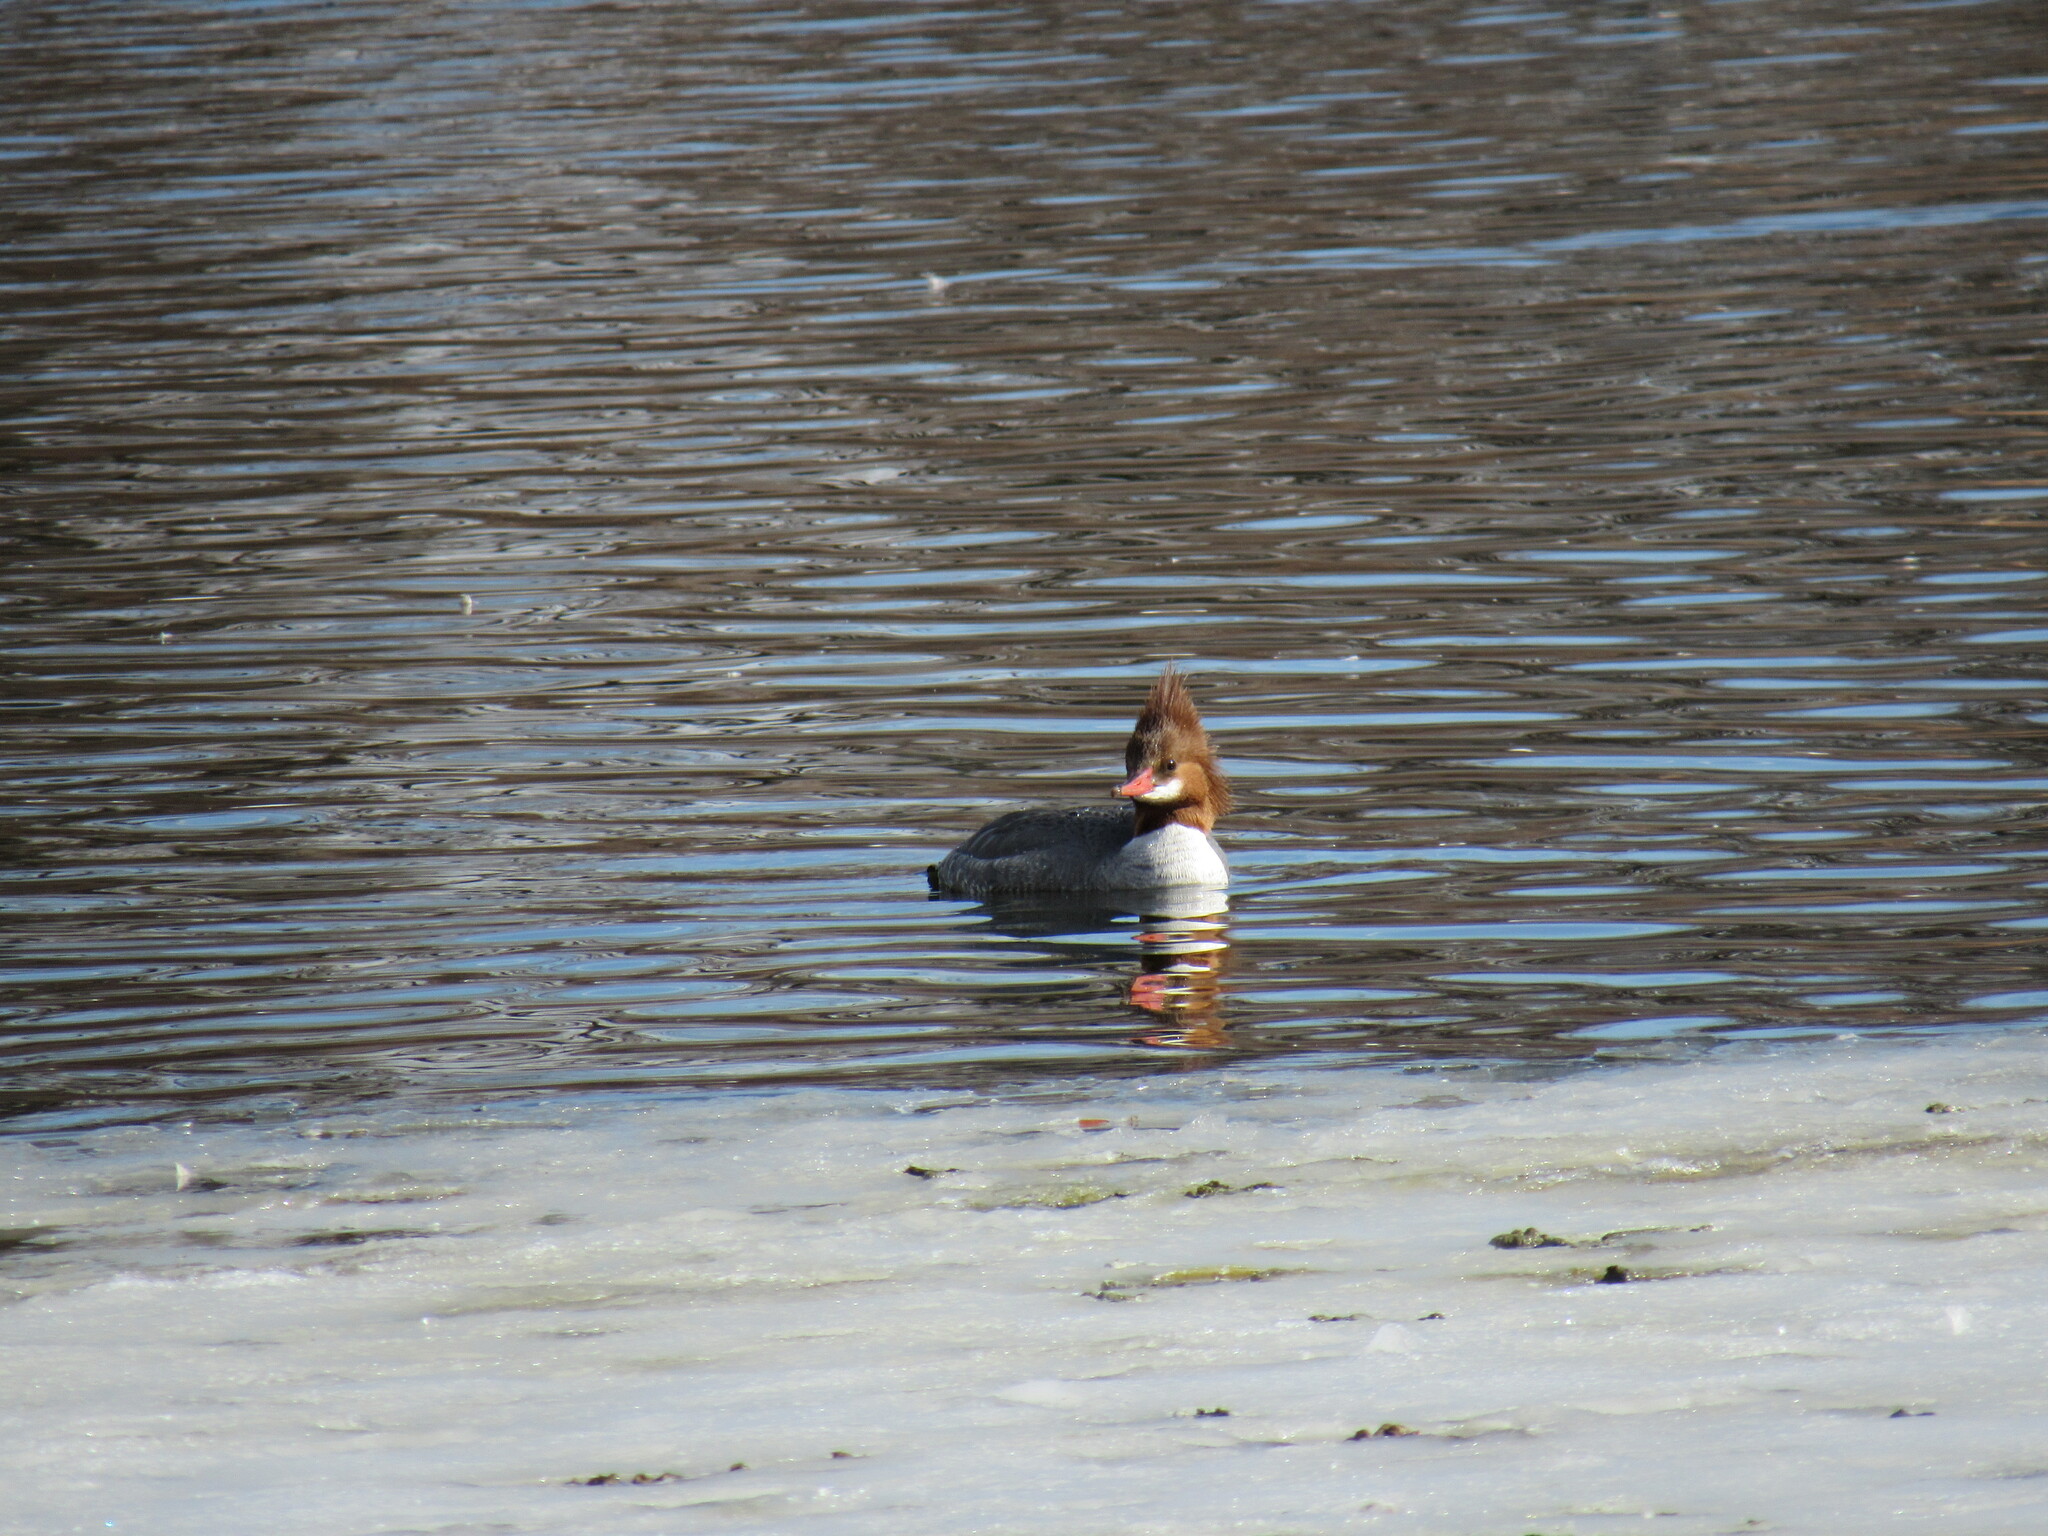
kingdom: Animalia
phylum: Chordata
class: Aves
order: Anseriformes
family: Anatidae
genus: Mergus
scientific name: Mergus merganser
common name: Common merganser
